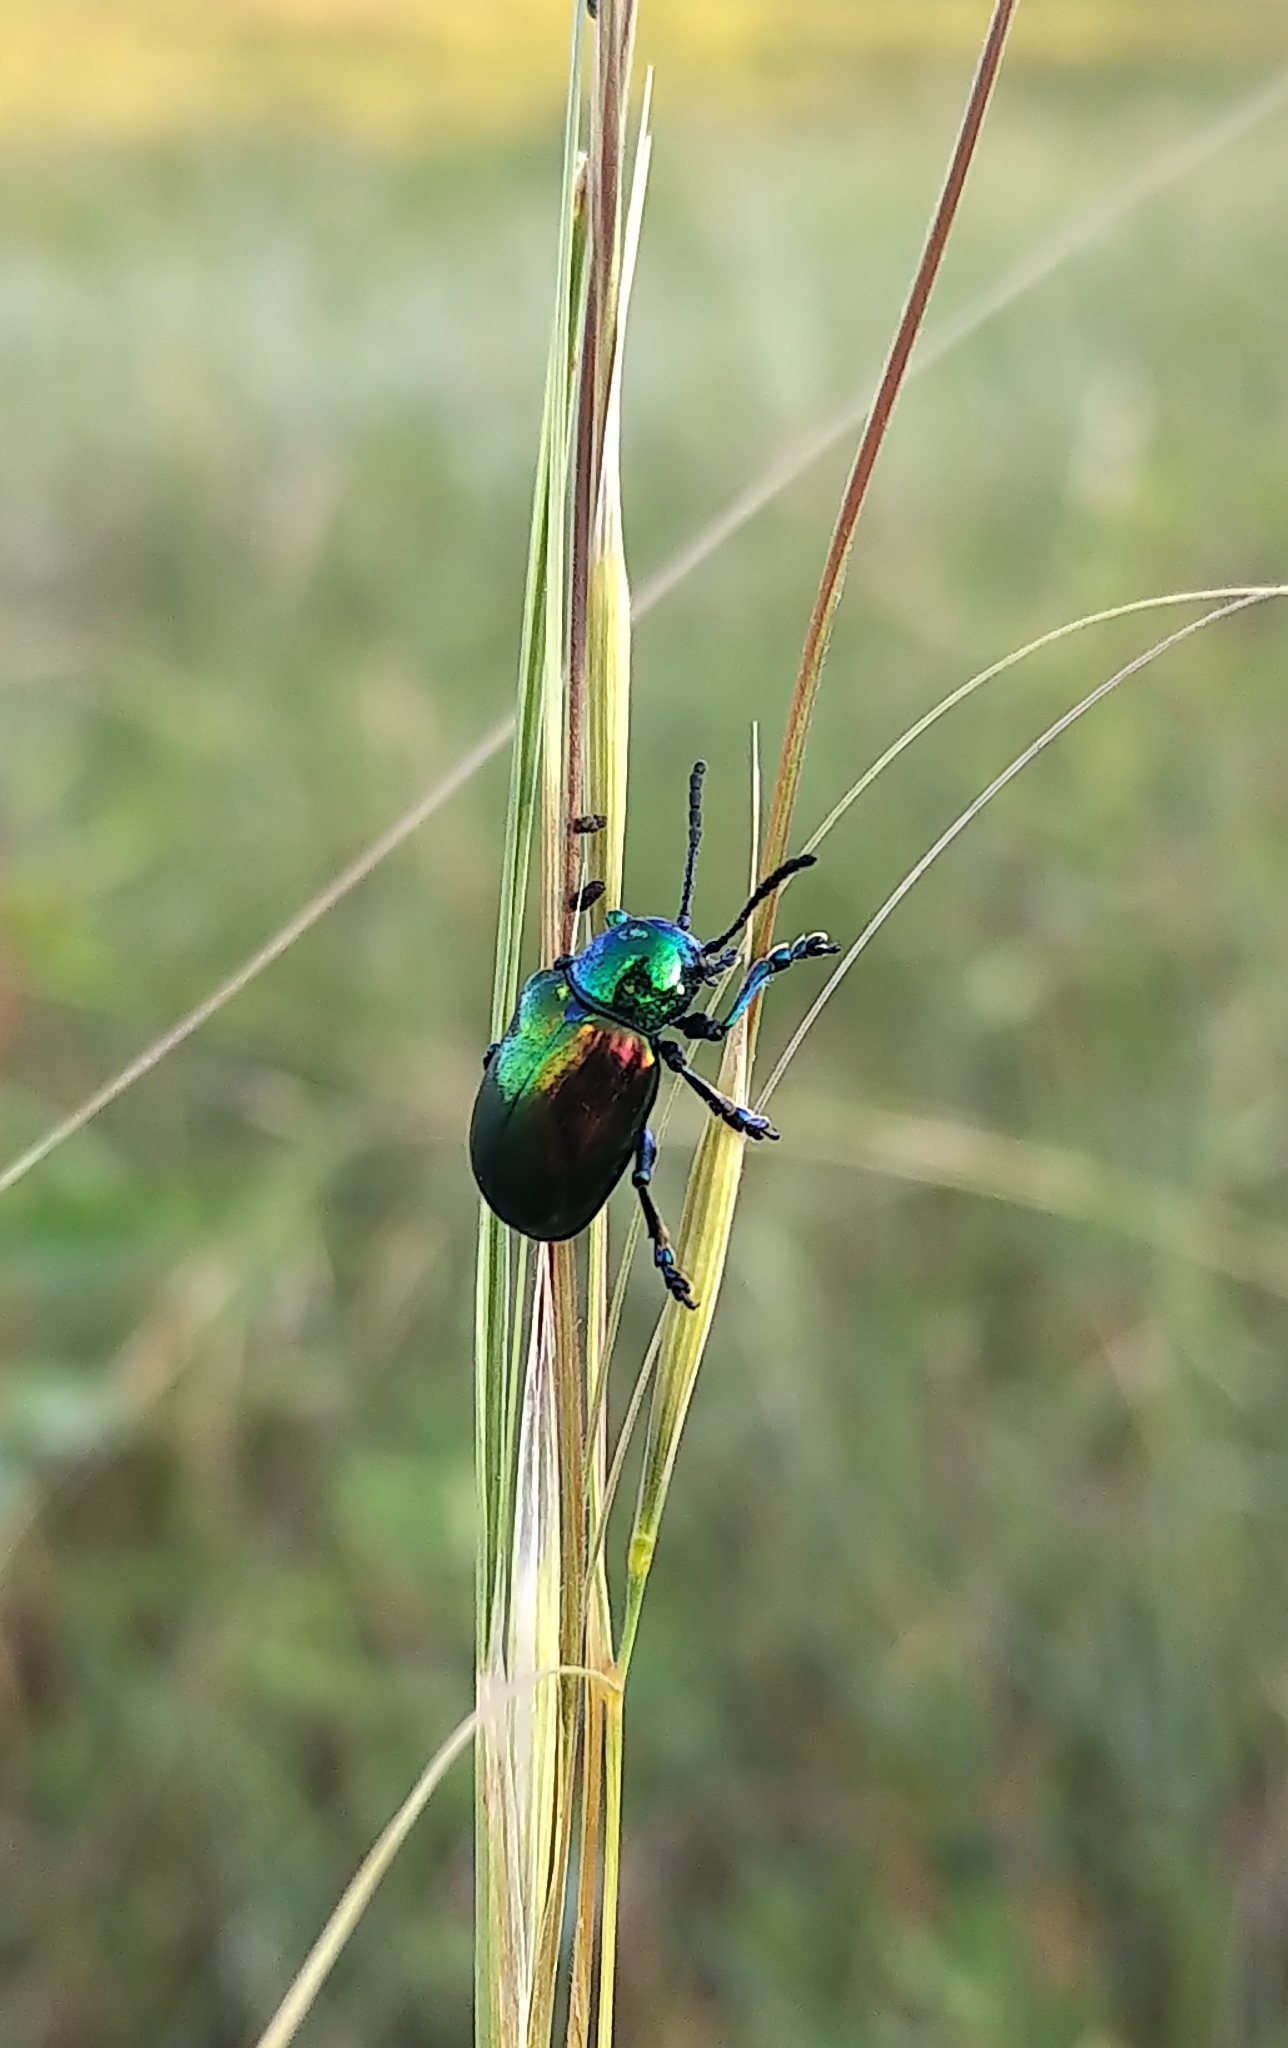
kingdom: Animalia
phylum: Arthropoda
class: Insecta
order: Coleoptera
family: Chrysomelidae
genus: Chrysochus
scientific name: Chrysochus auratus
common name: Dogbane leaf beetle
